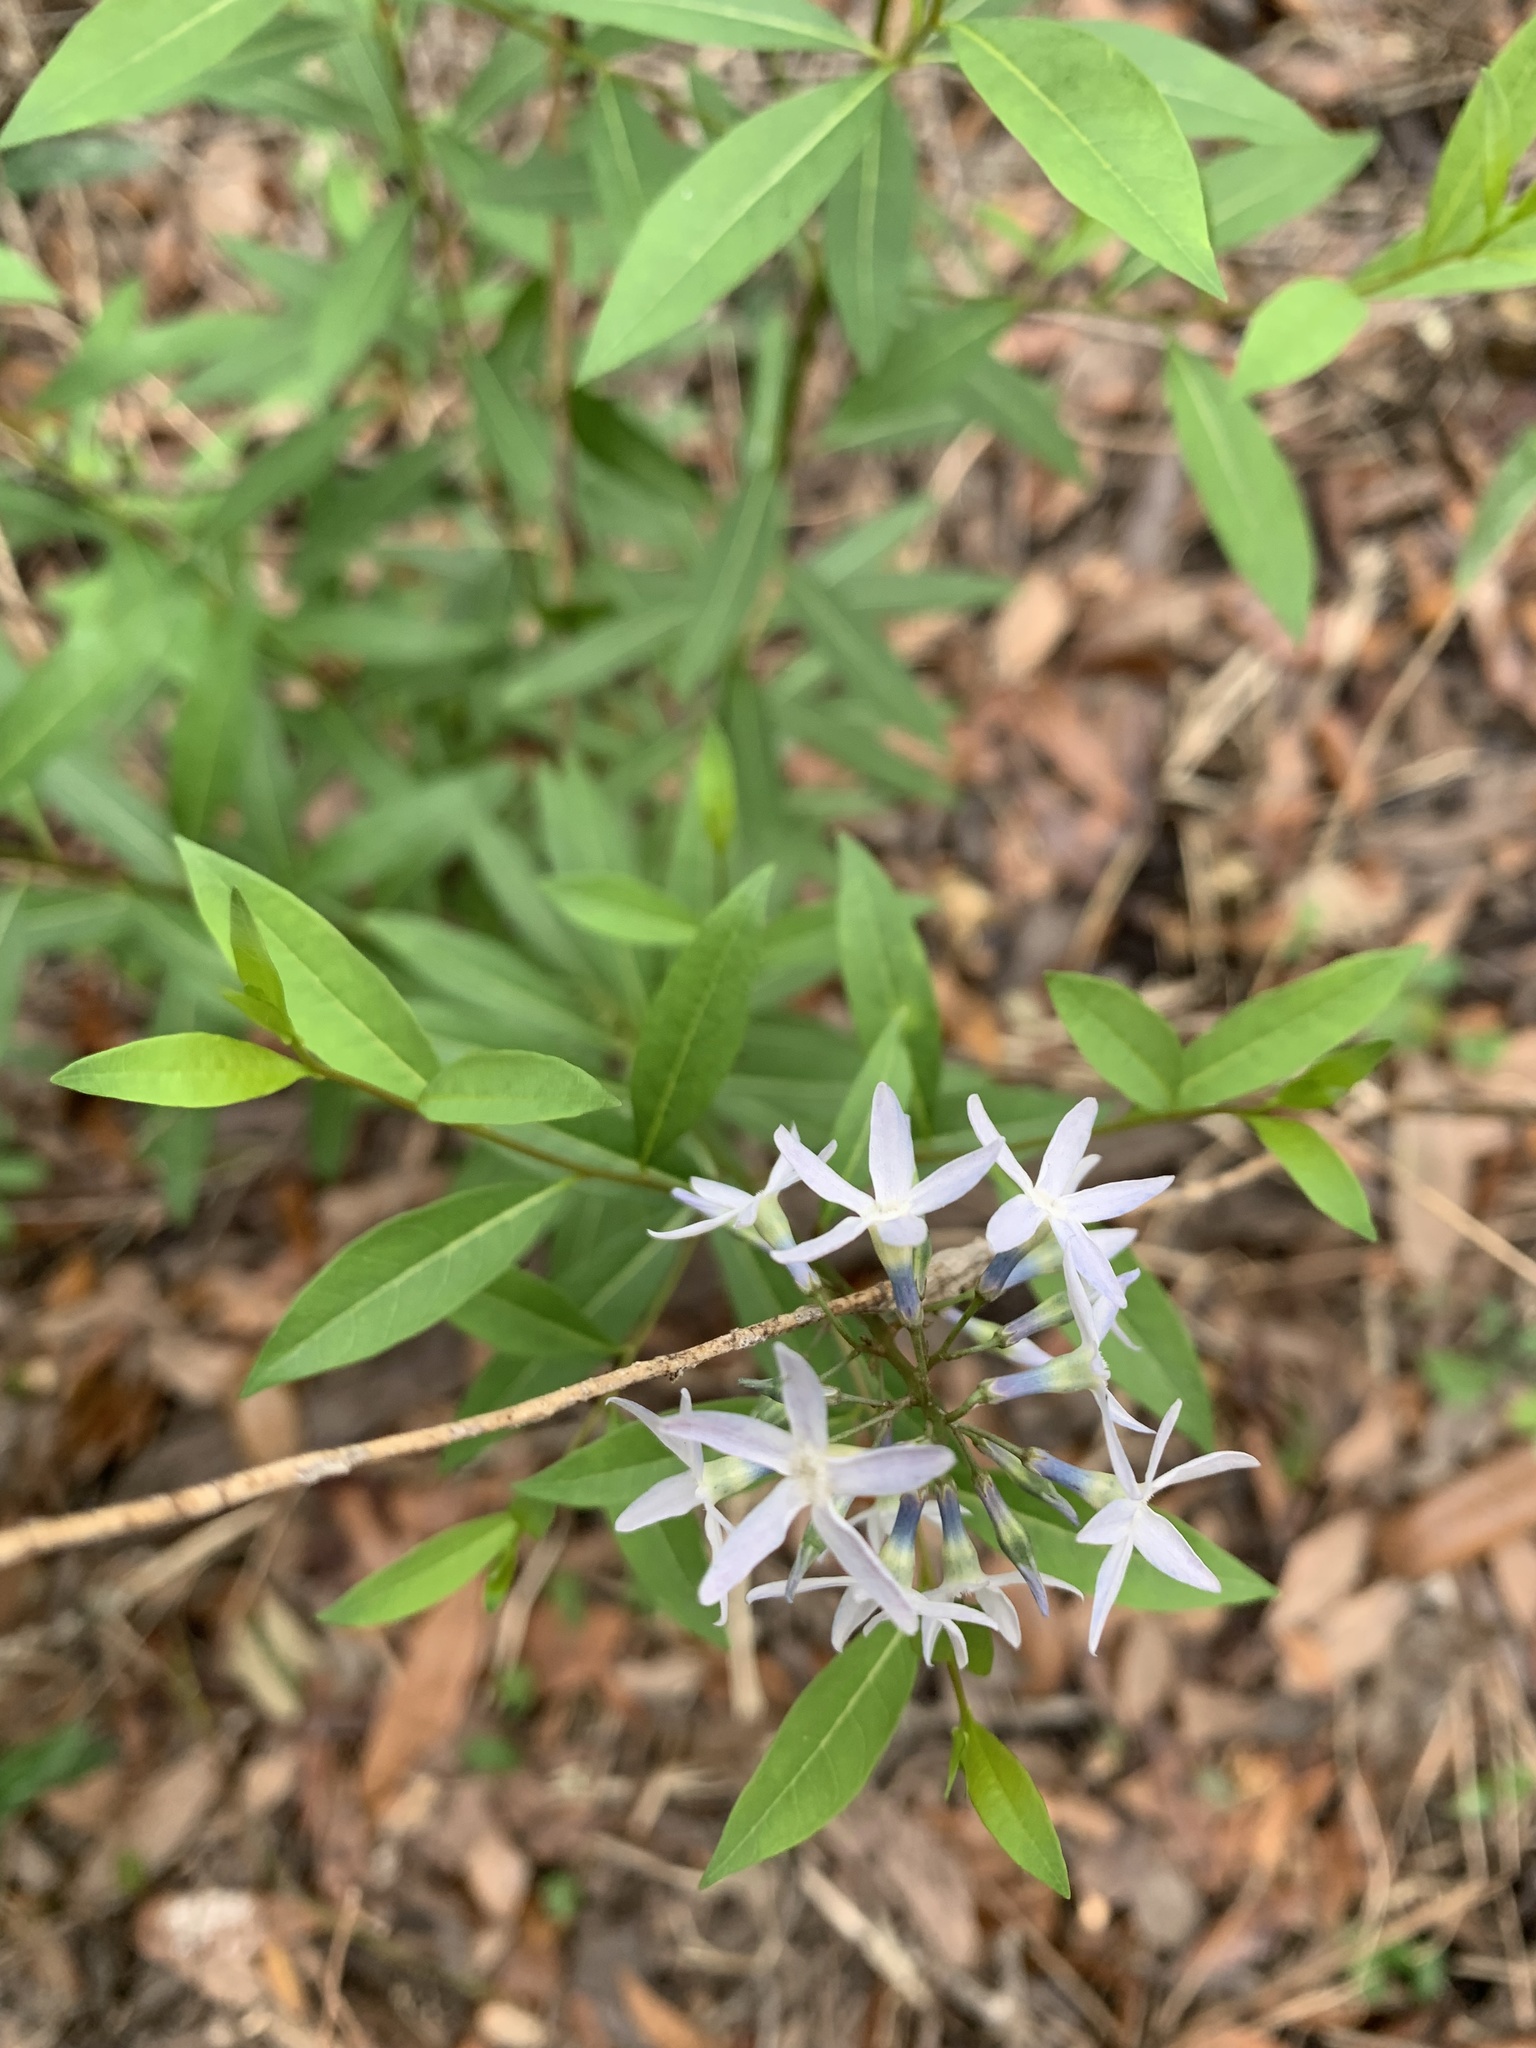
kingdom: Plantae
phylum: Tracheophyta
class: Magnoliopsida
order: Gentianales
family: Apocynaceae
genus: Amsonia
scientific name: Amsonia tabernaemontana
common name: Texas-star
